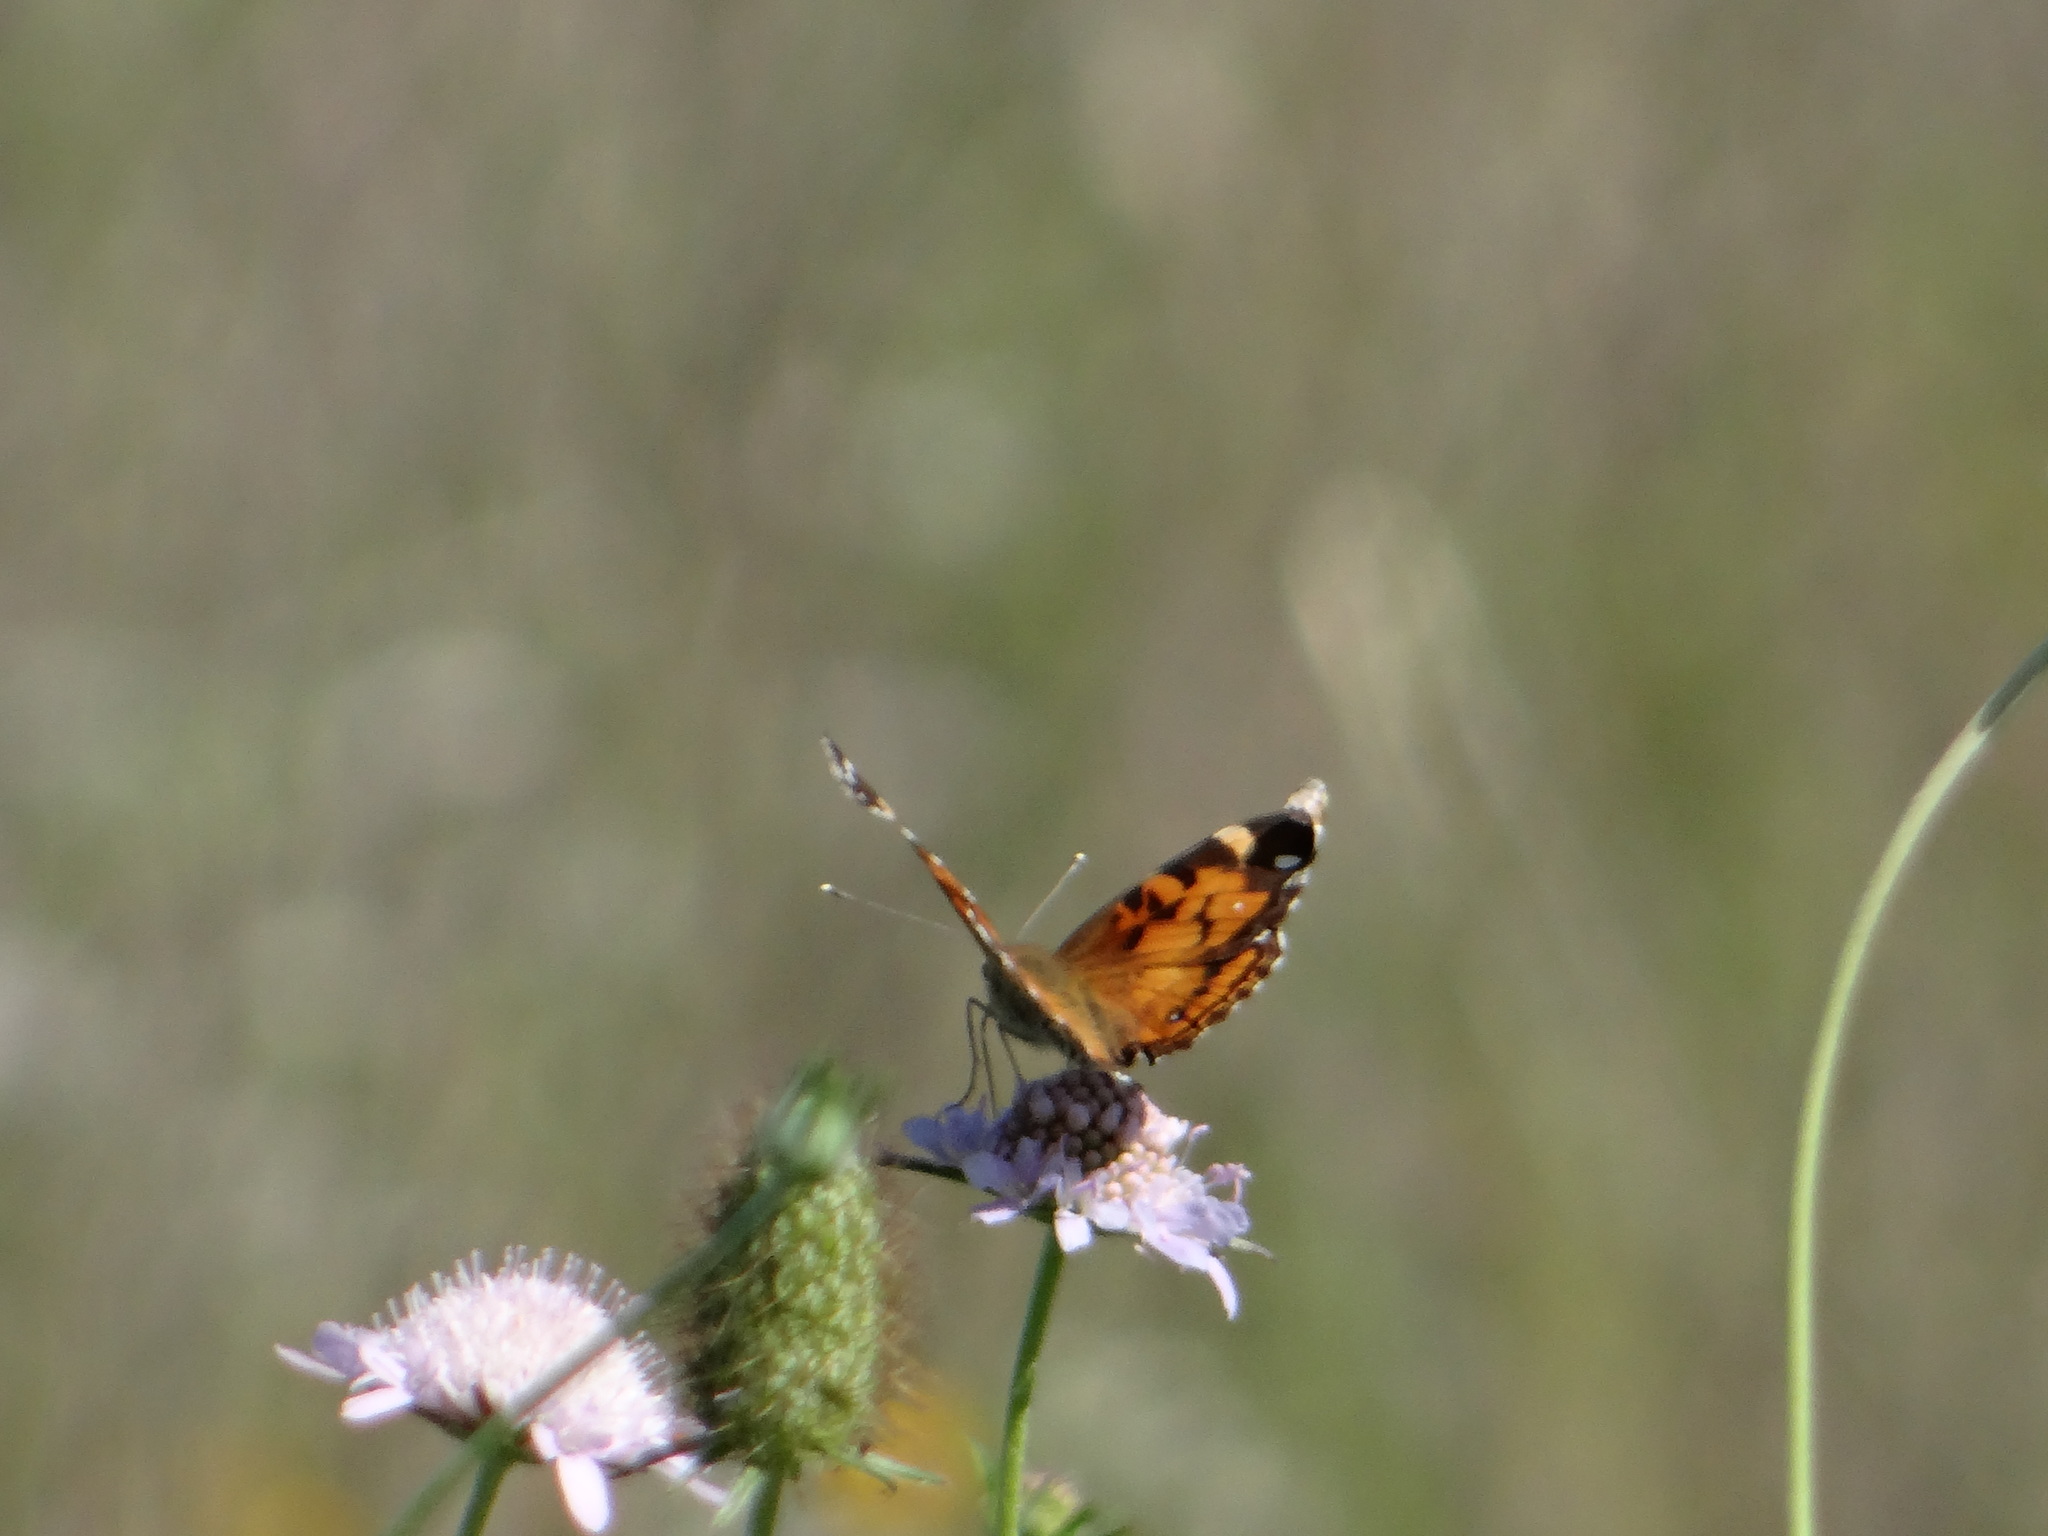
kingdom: Animalia
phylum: Arthropoda
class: Insecta
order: Lepidoptera
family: Nymphalidae
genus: Vanessa
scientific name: Vanessa virginiensis
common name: American lady
